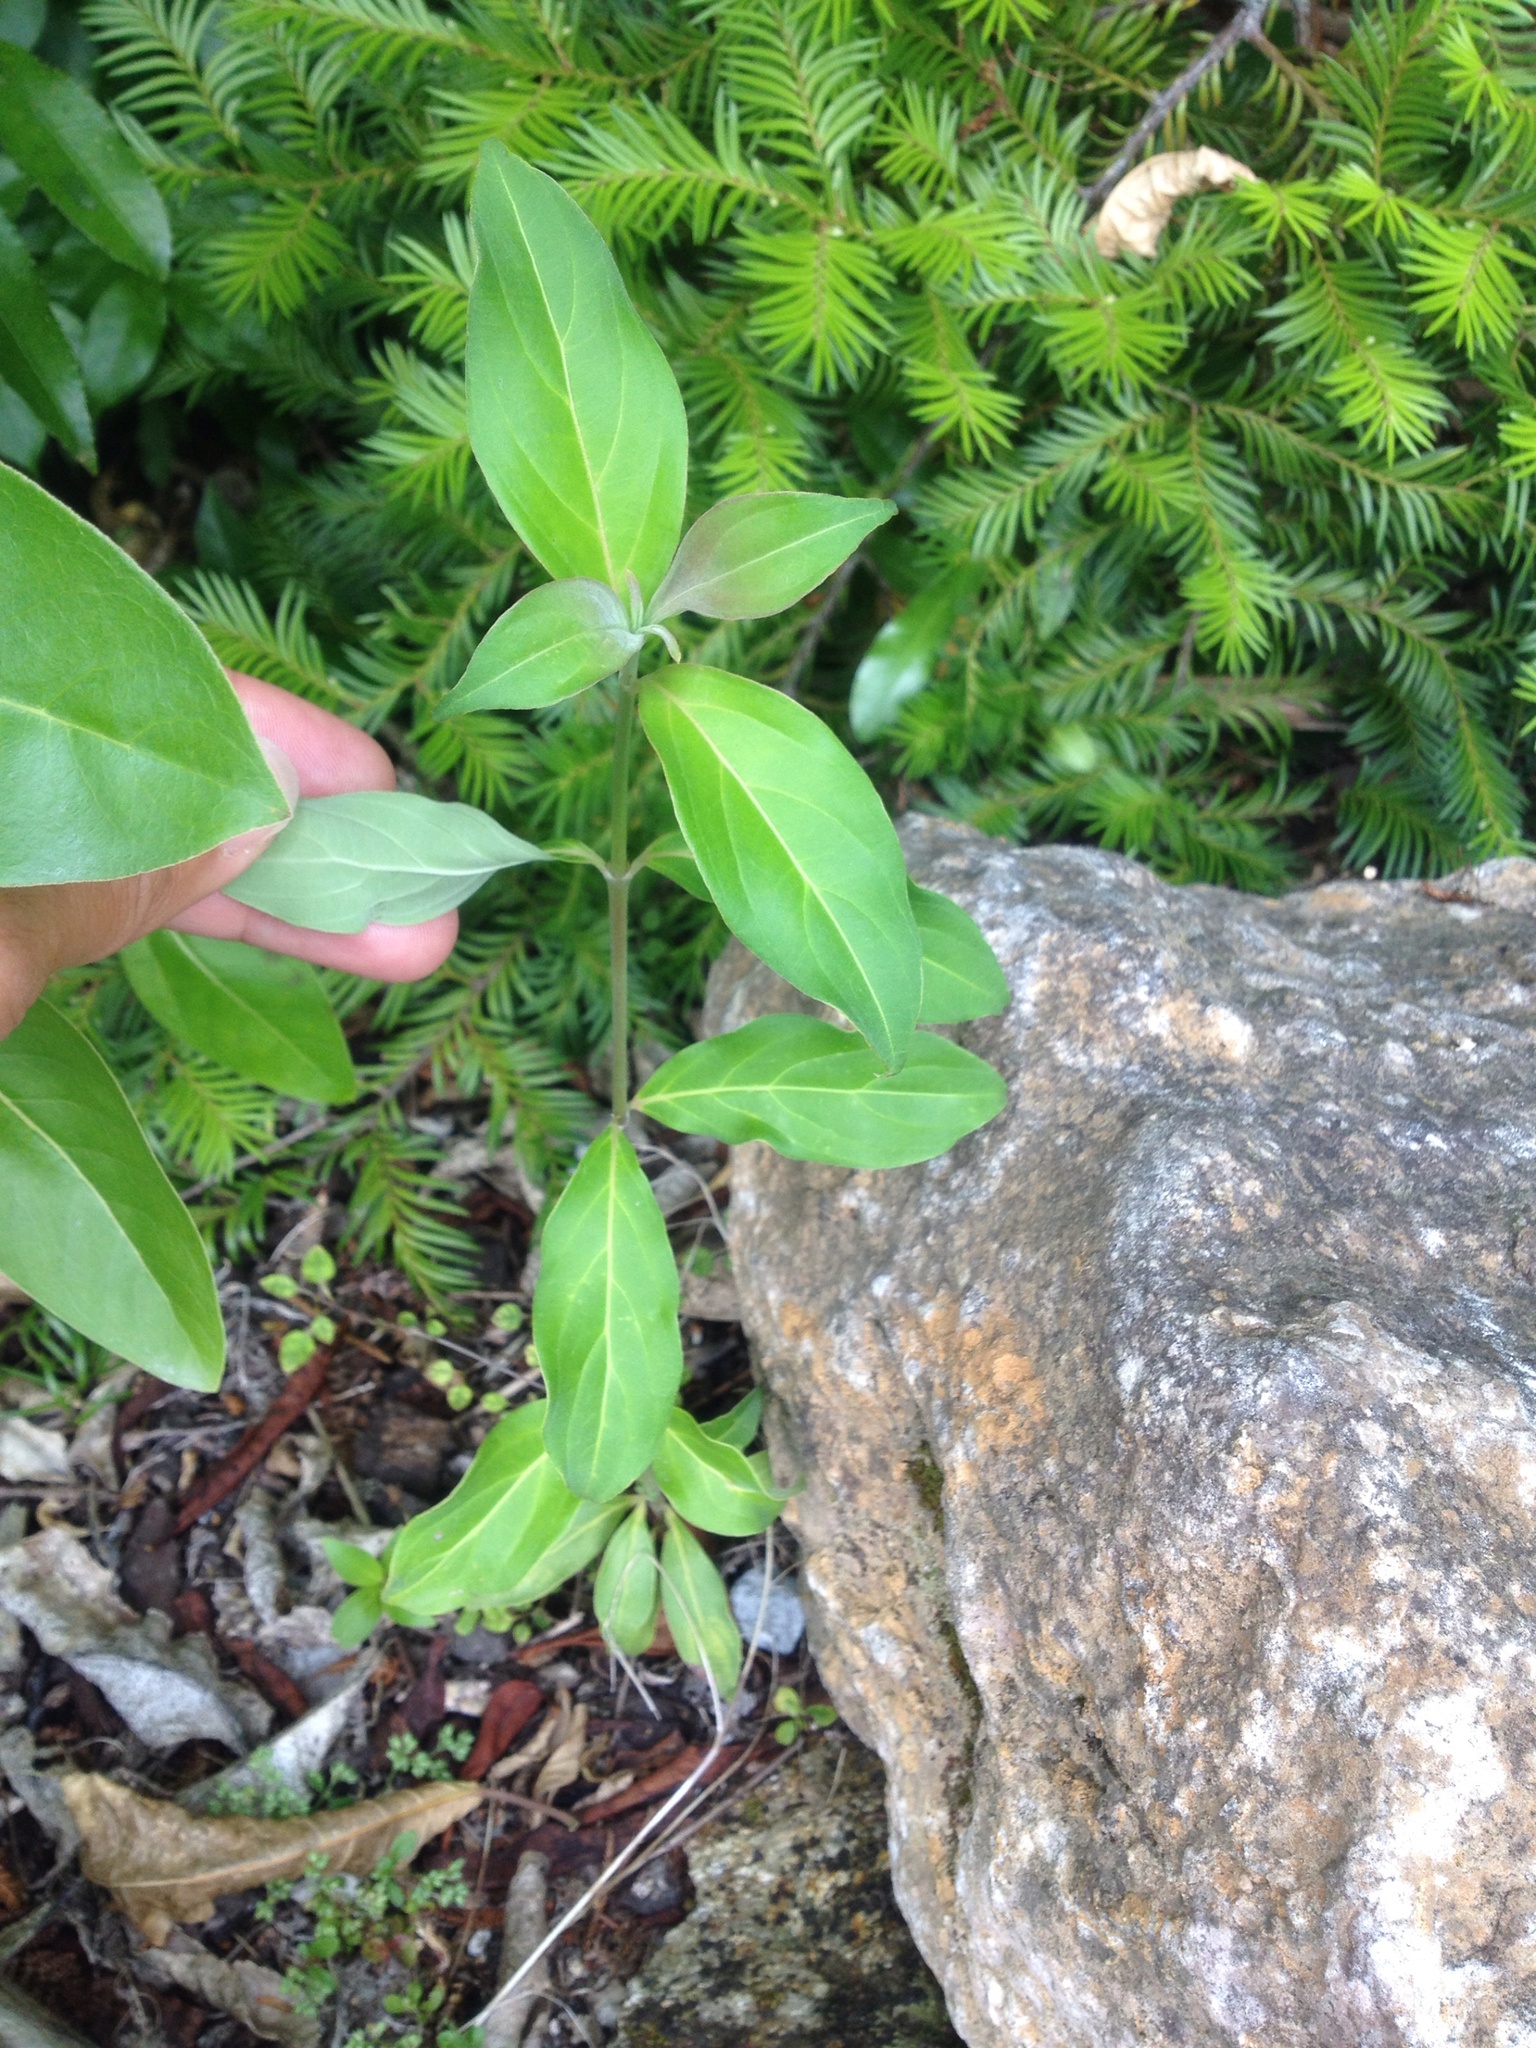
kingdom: Plantae
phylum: Tracheophyta
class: Magnoliopsida
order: Cornales
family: Cornaceae
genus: Cornus
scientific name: Cornus capitata
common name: Bentham's cornel
